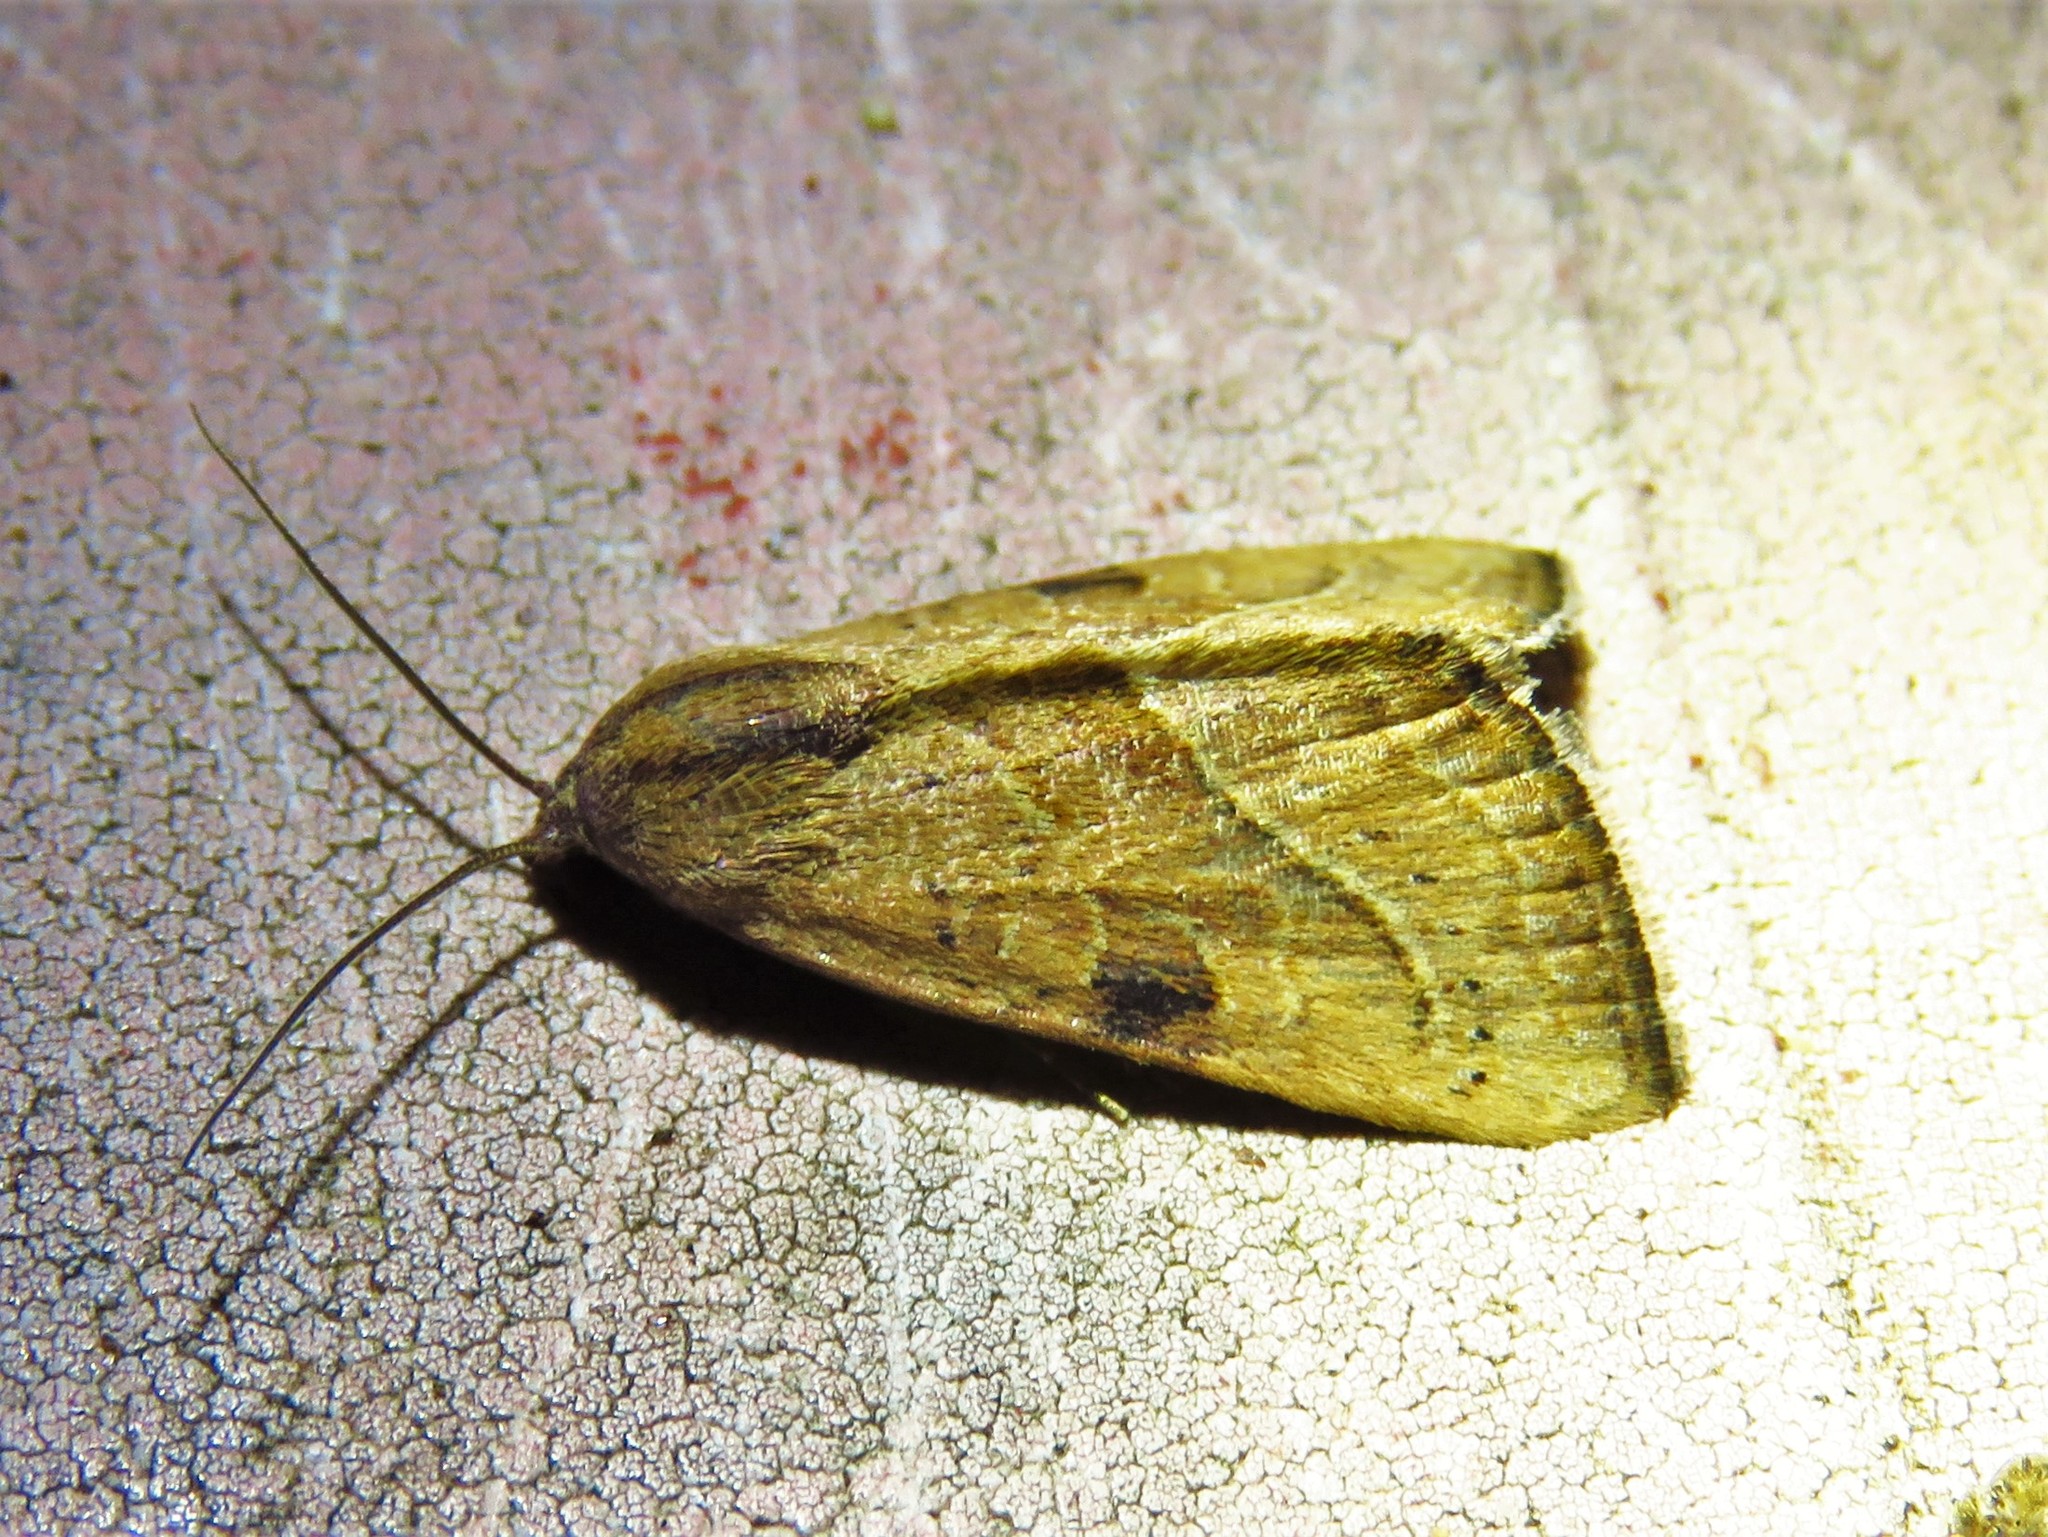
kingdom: Animalia
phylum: Arthropoda
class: Insecta
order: Lepidoptera
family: Noctuidae
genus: Galgula
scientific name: Galgula partita
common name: Wedgeling
